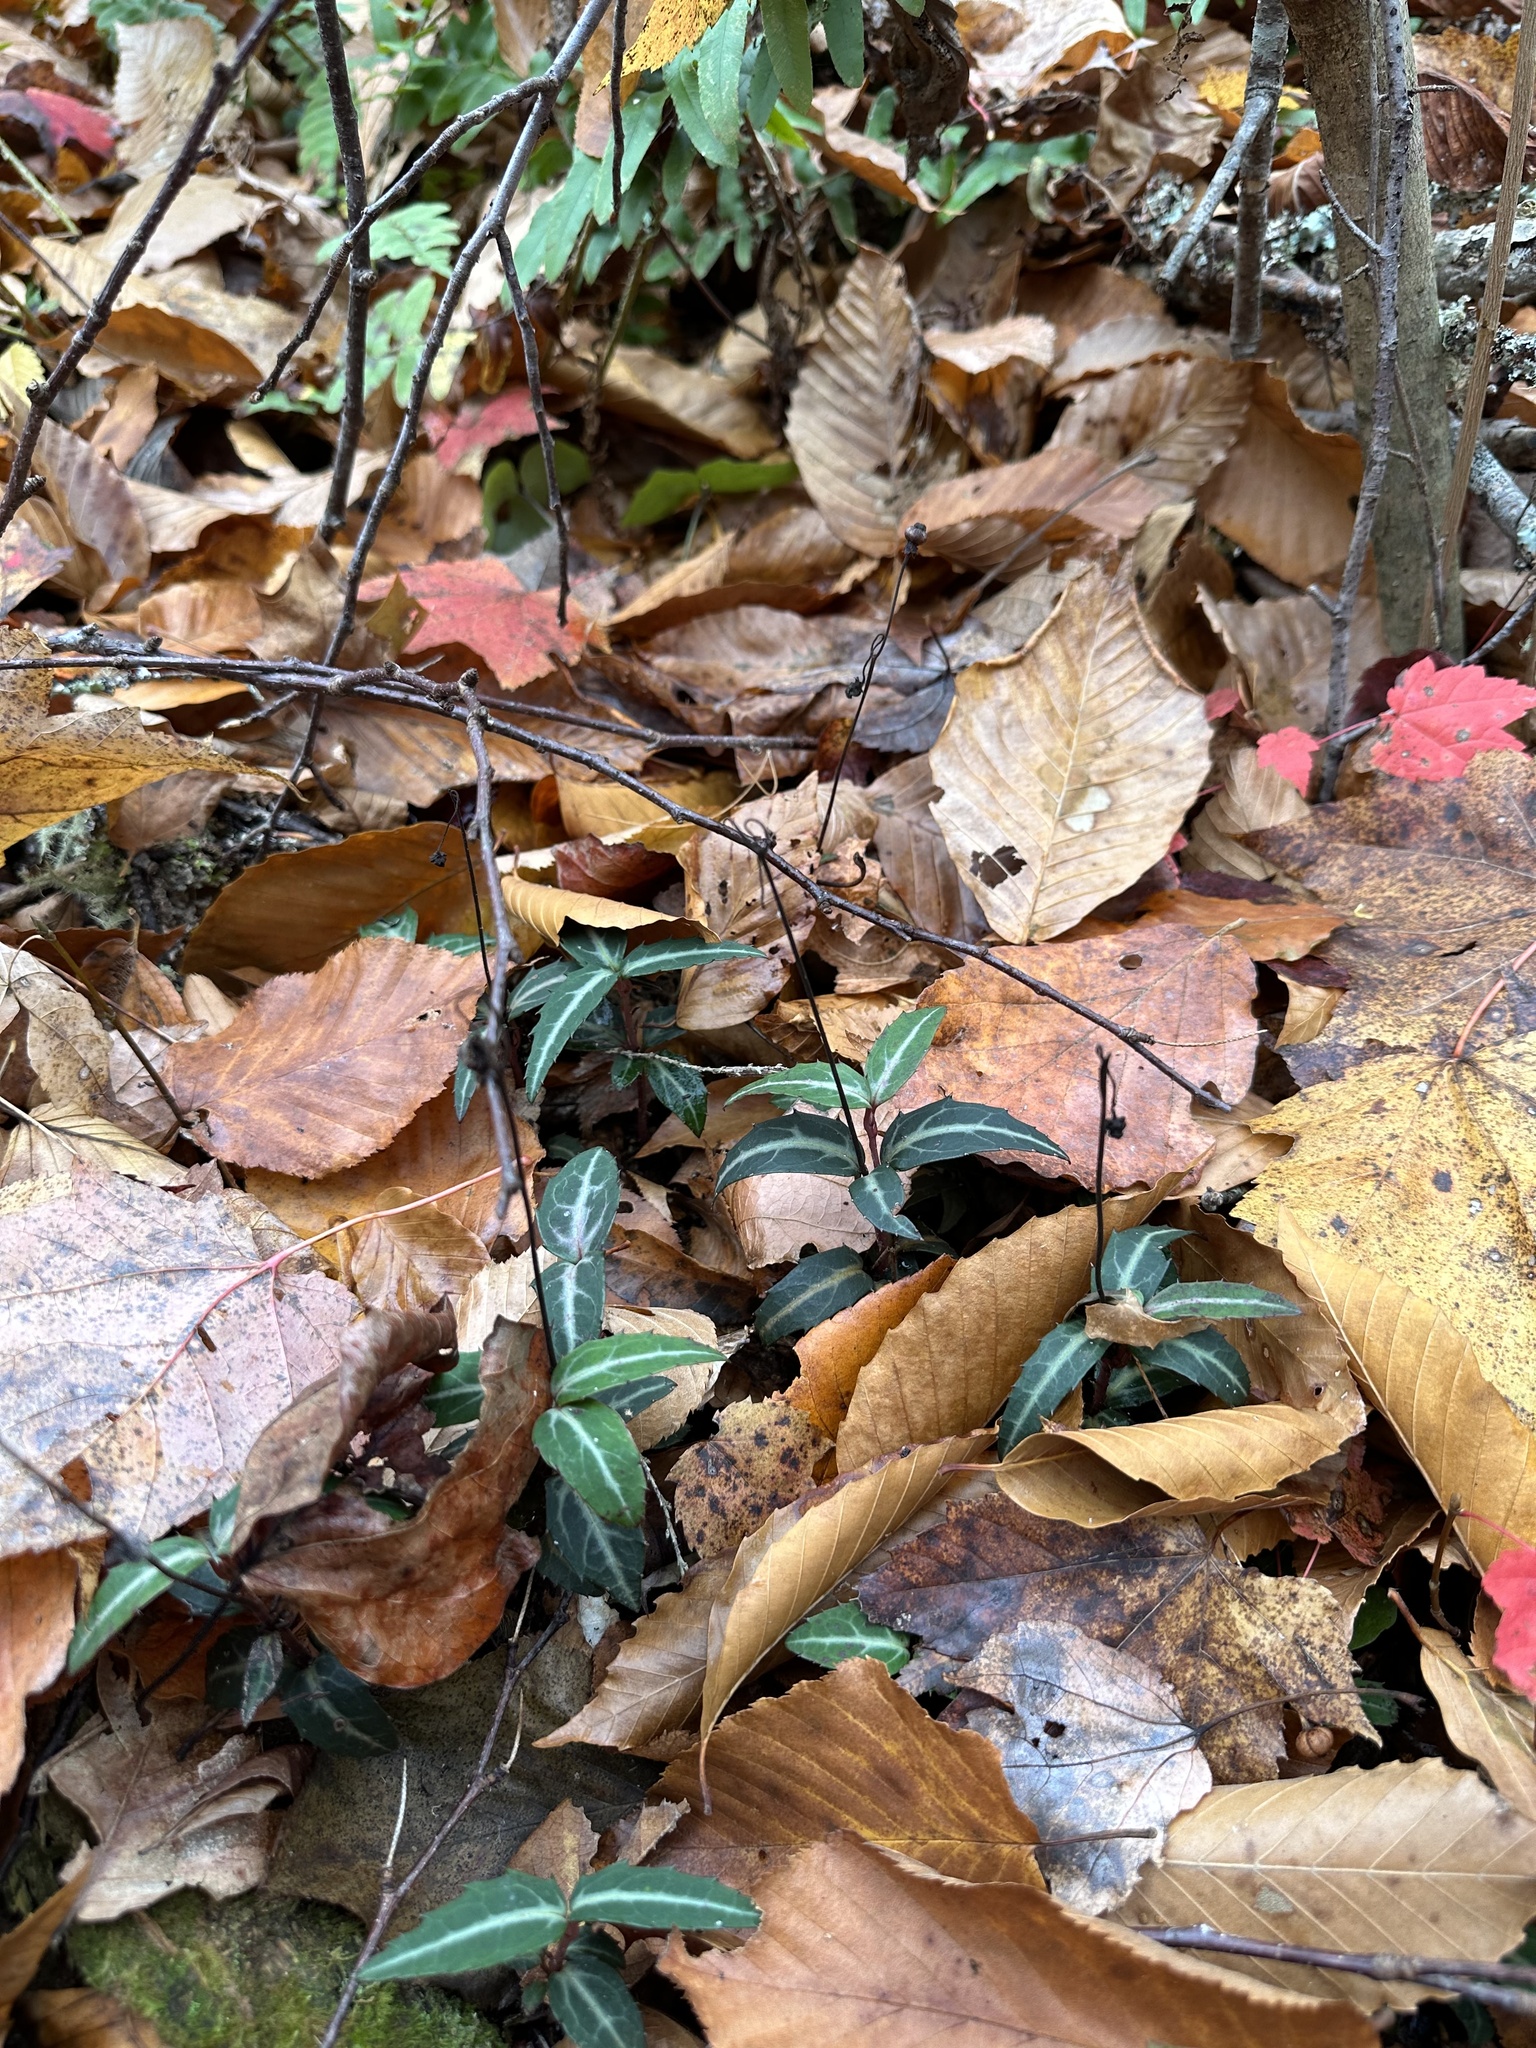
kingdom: Plantae
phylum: Tracheophyta
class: Magnoliopsida
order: Ericales
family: Ericaceae
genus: Chimaphila
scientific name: Chimaphila maculata
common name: Spotted pipsissewa
